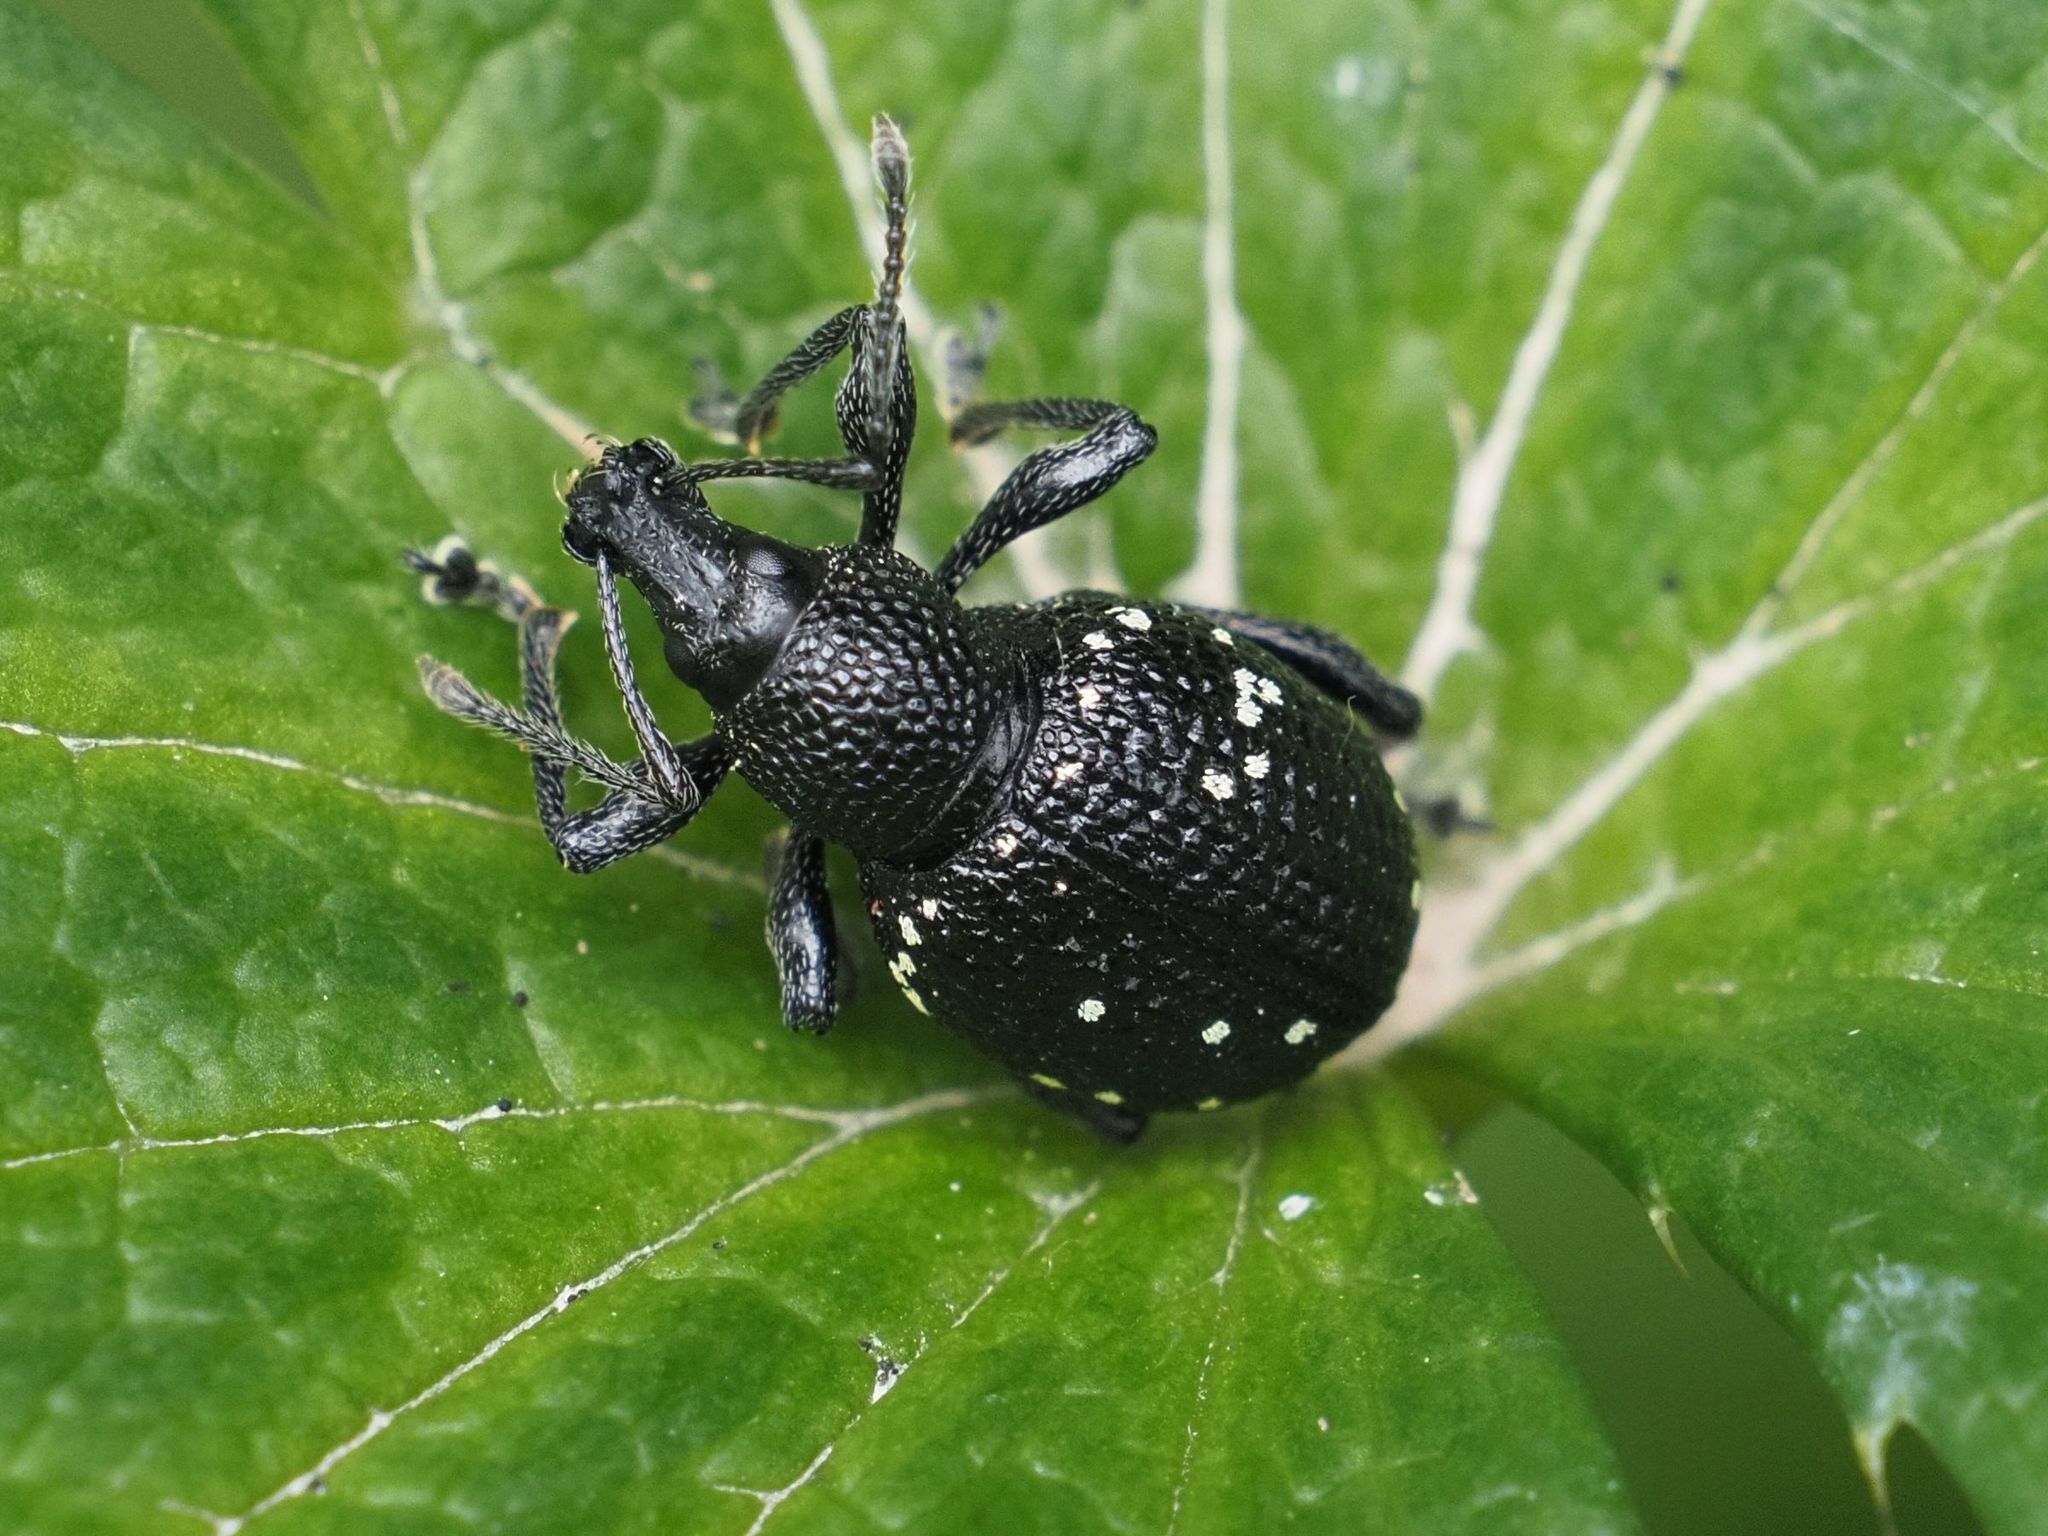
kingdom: Animalia
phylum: Arthropoda
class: Insecta
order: Coleoptera
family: Curculionidae
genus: Otiorhynchus
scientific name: Otiorhynchus gemmatus
